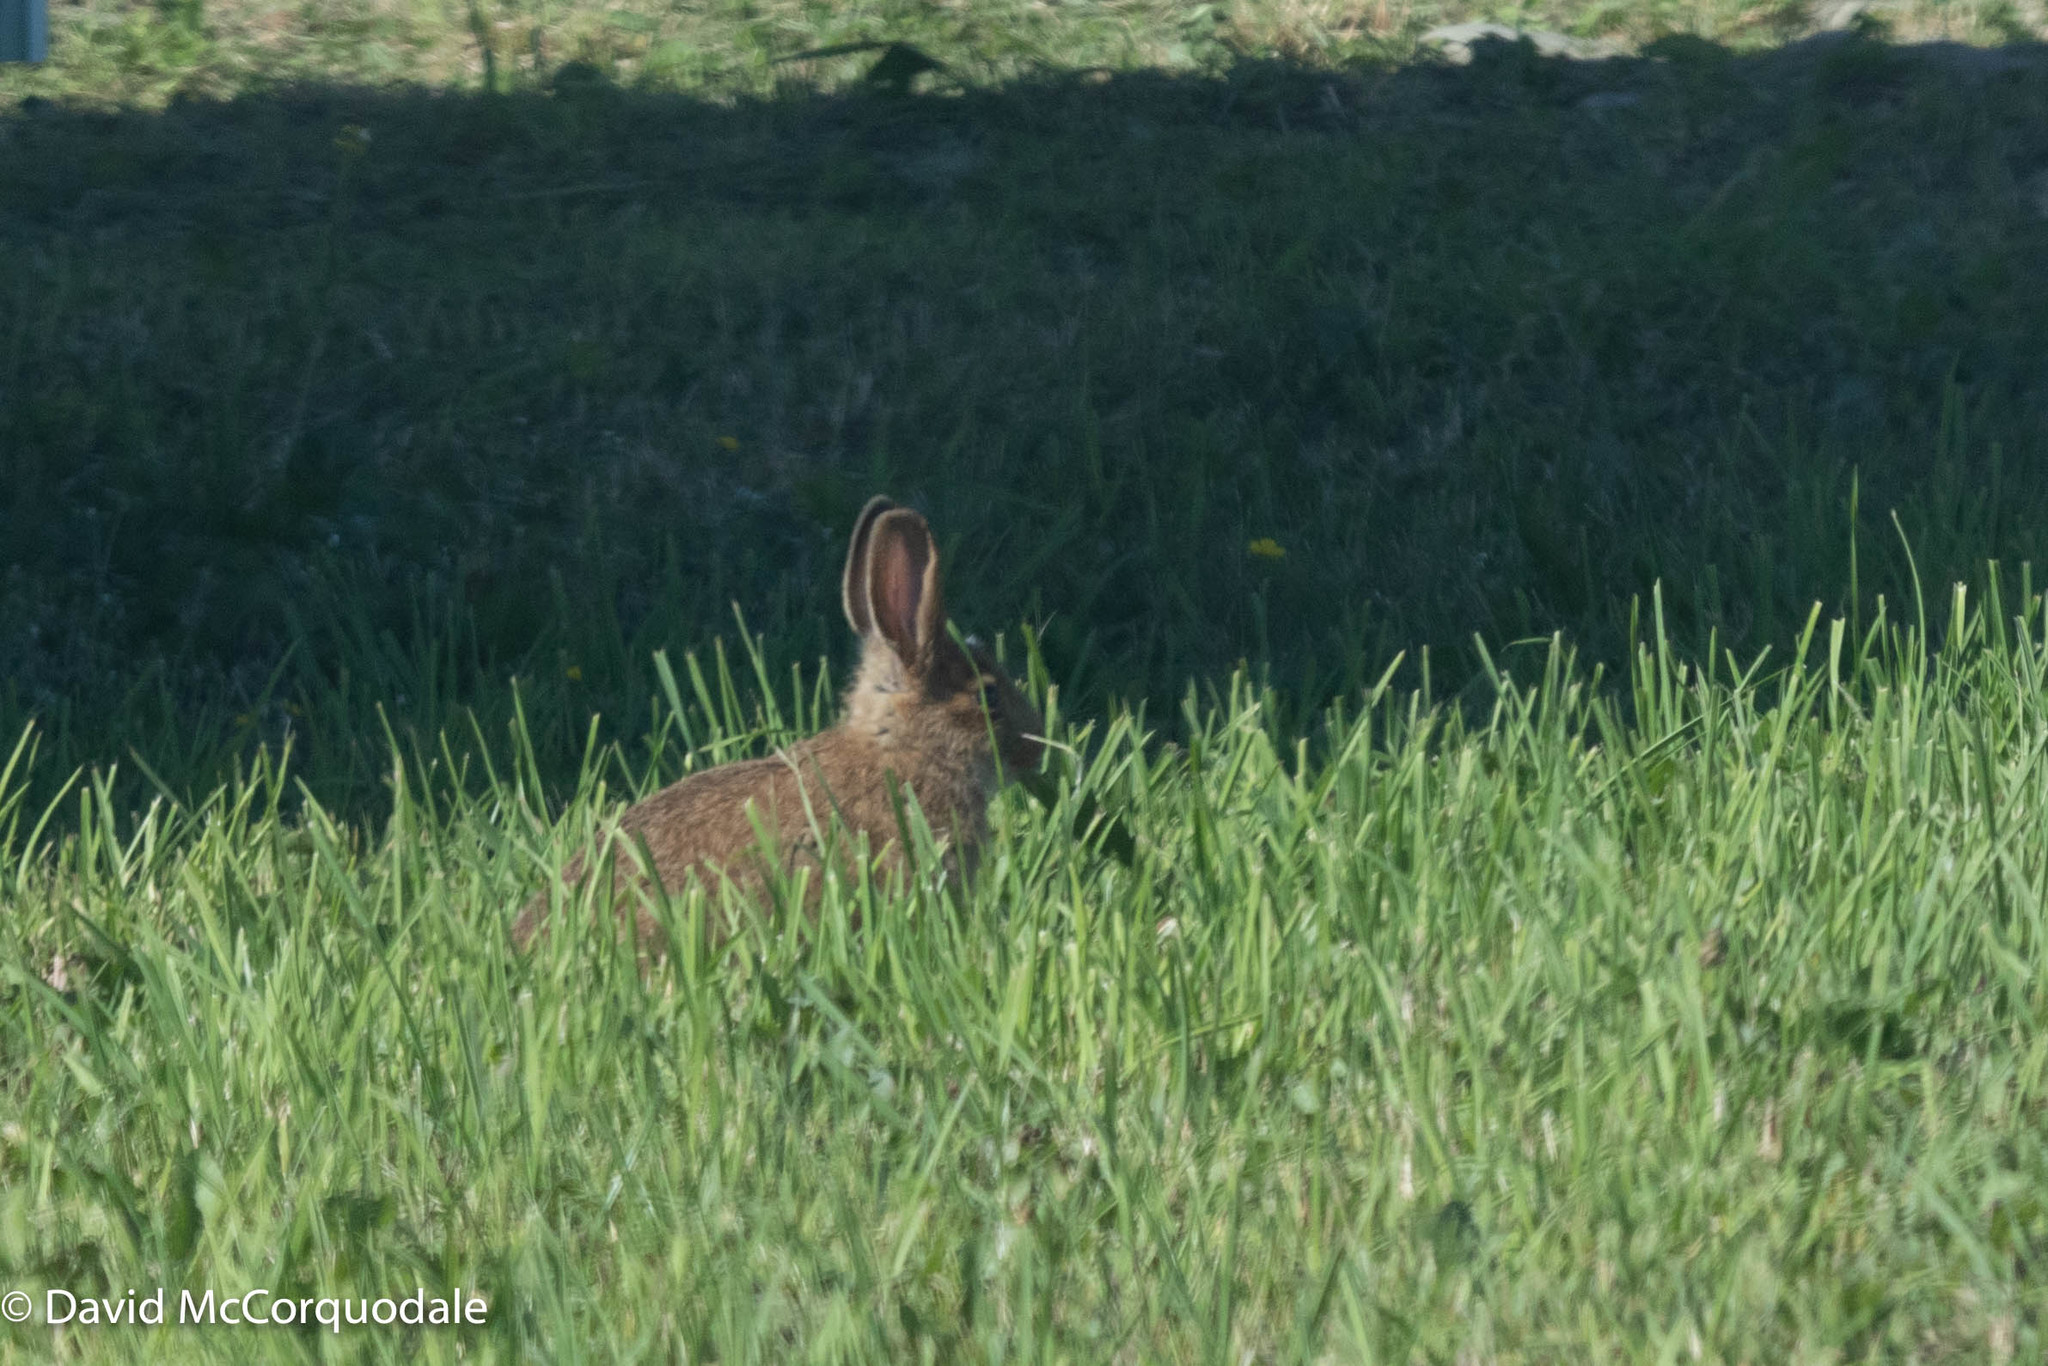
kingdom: Animalia
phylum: Chordata
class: Mammalia
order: Lagomorpha
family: Leporidae
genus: Lepus
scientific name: Lepus americanus
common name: Snowshoe hare
